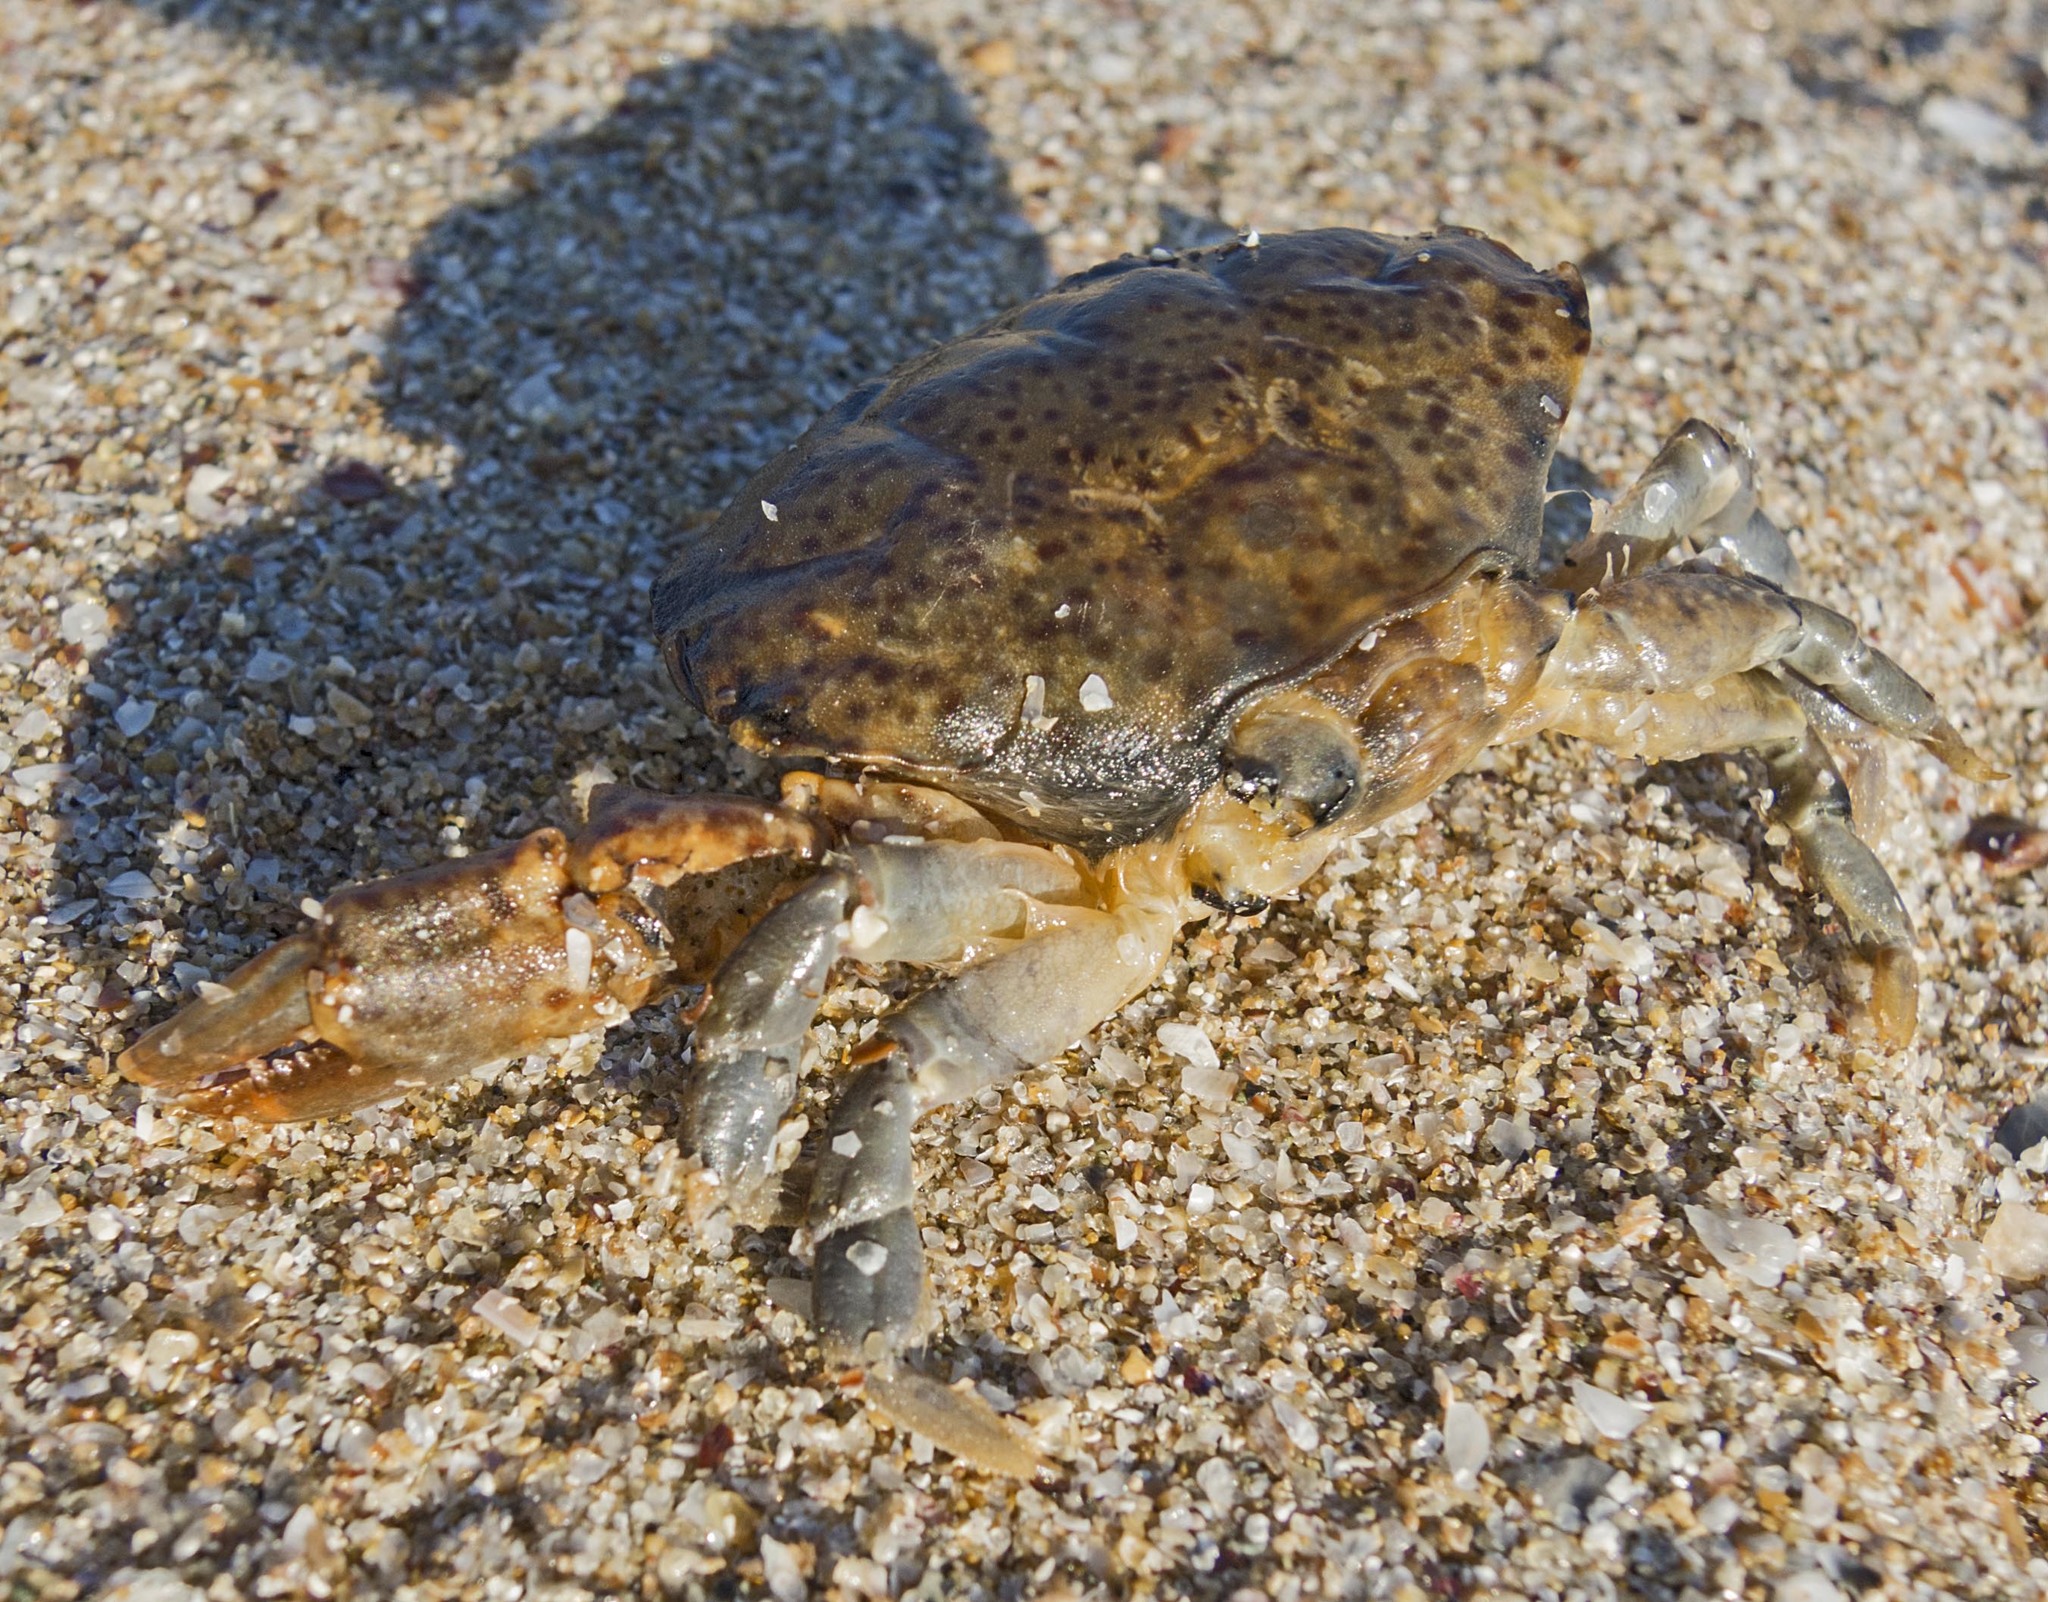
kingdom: Animalia
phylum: Arthropoda
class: Malacostraca
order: Decapoda
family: Xanthidae
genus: Xantho
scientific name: Xantho poressa
